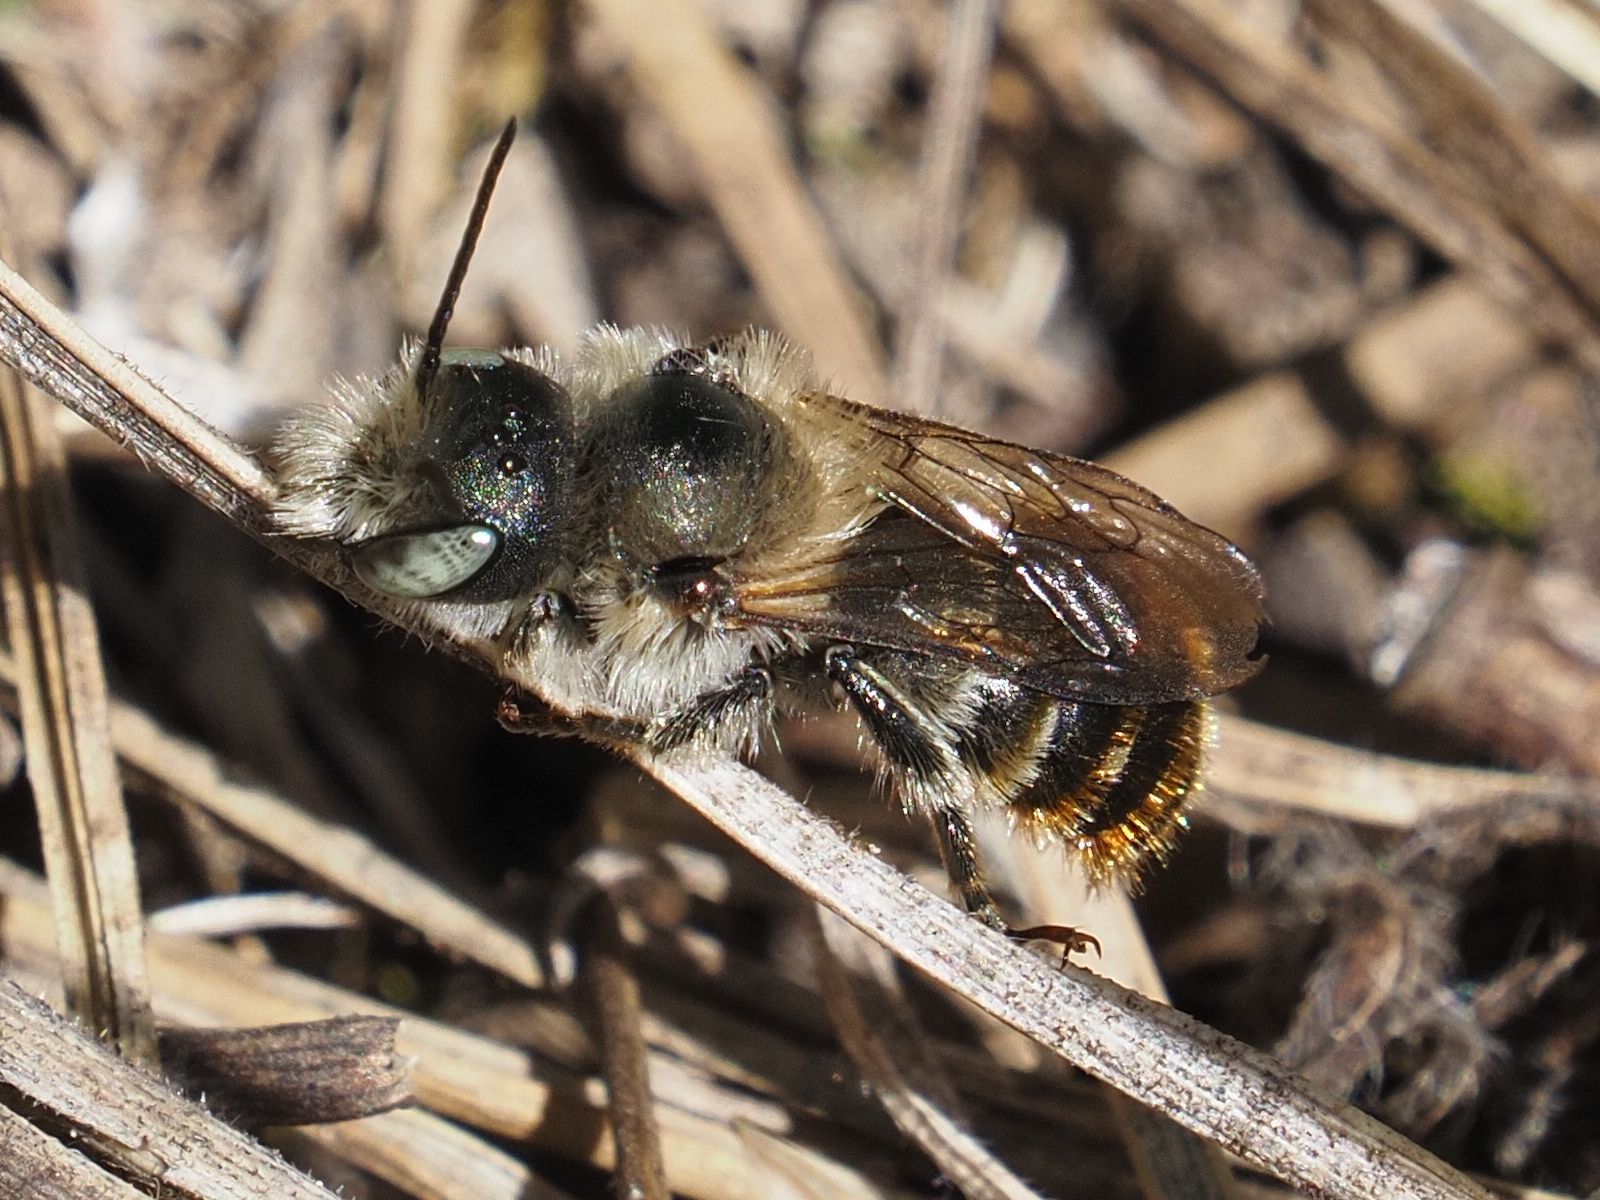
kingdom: Animalia
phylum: Arthropoda
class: Insecta
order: Hymenoptera
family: Megachilidae
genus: Osmia
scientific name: Osmia aurulenta
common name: Gold-fringed mason bee
